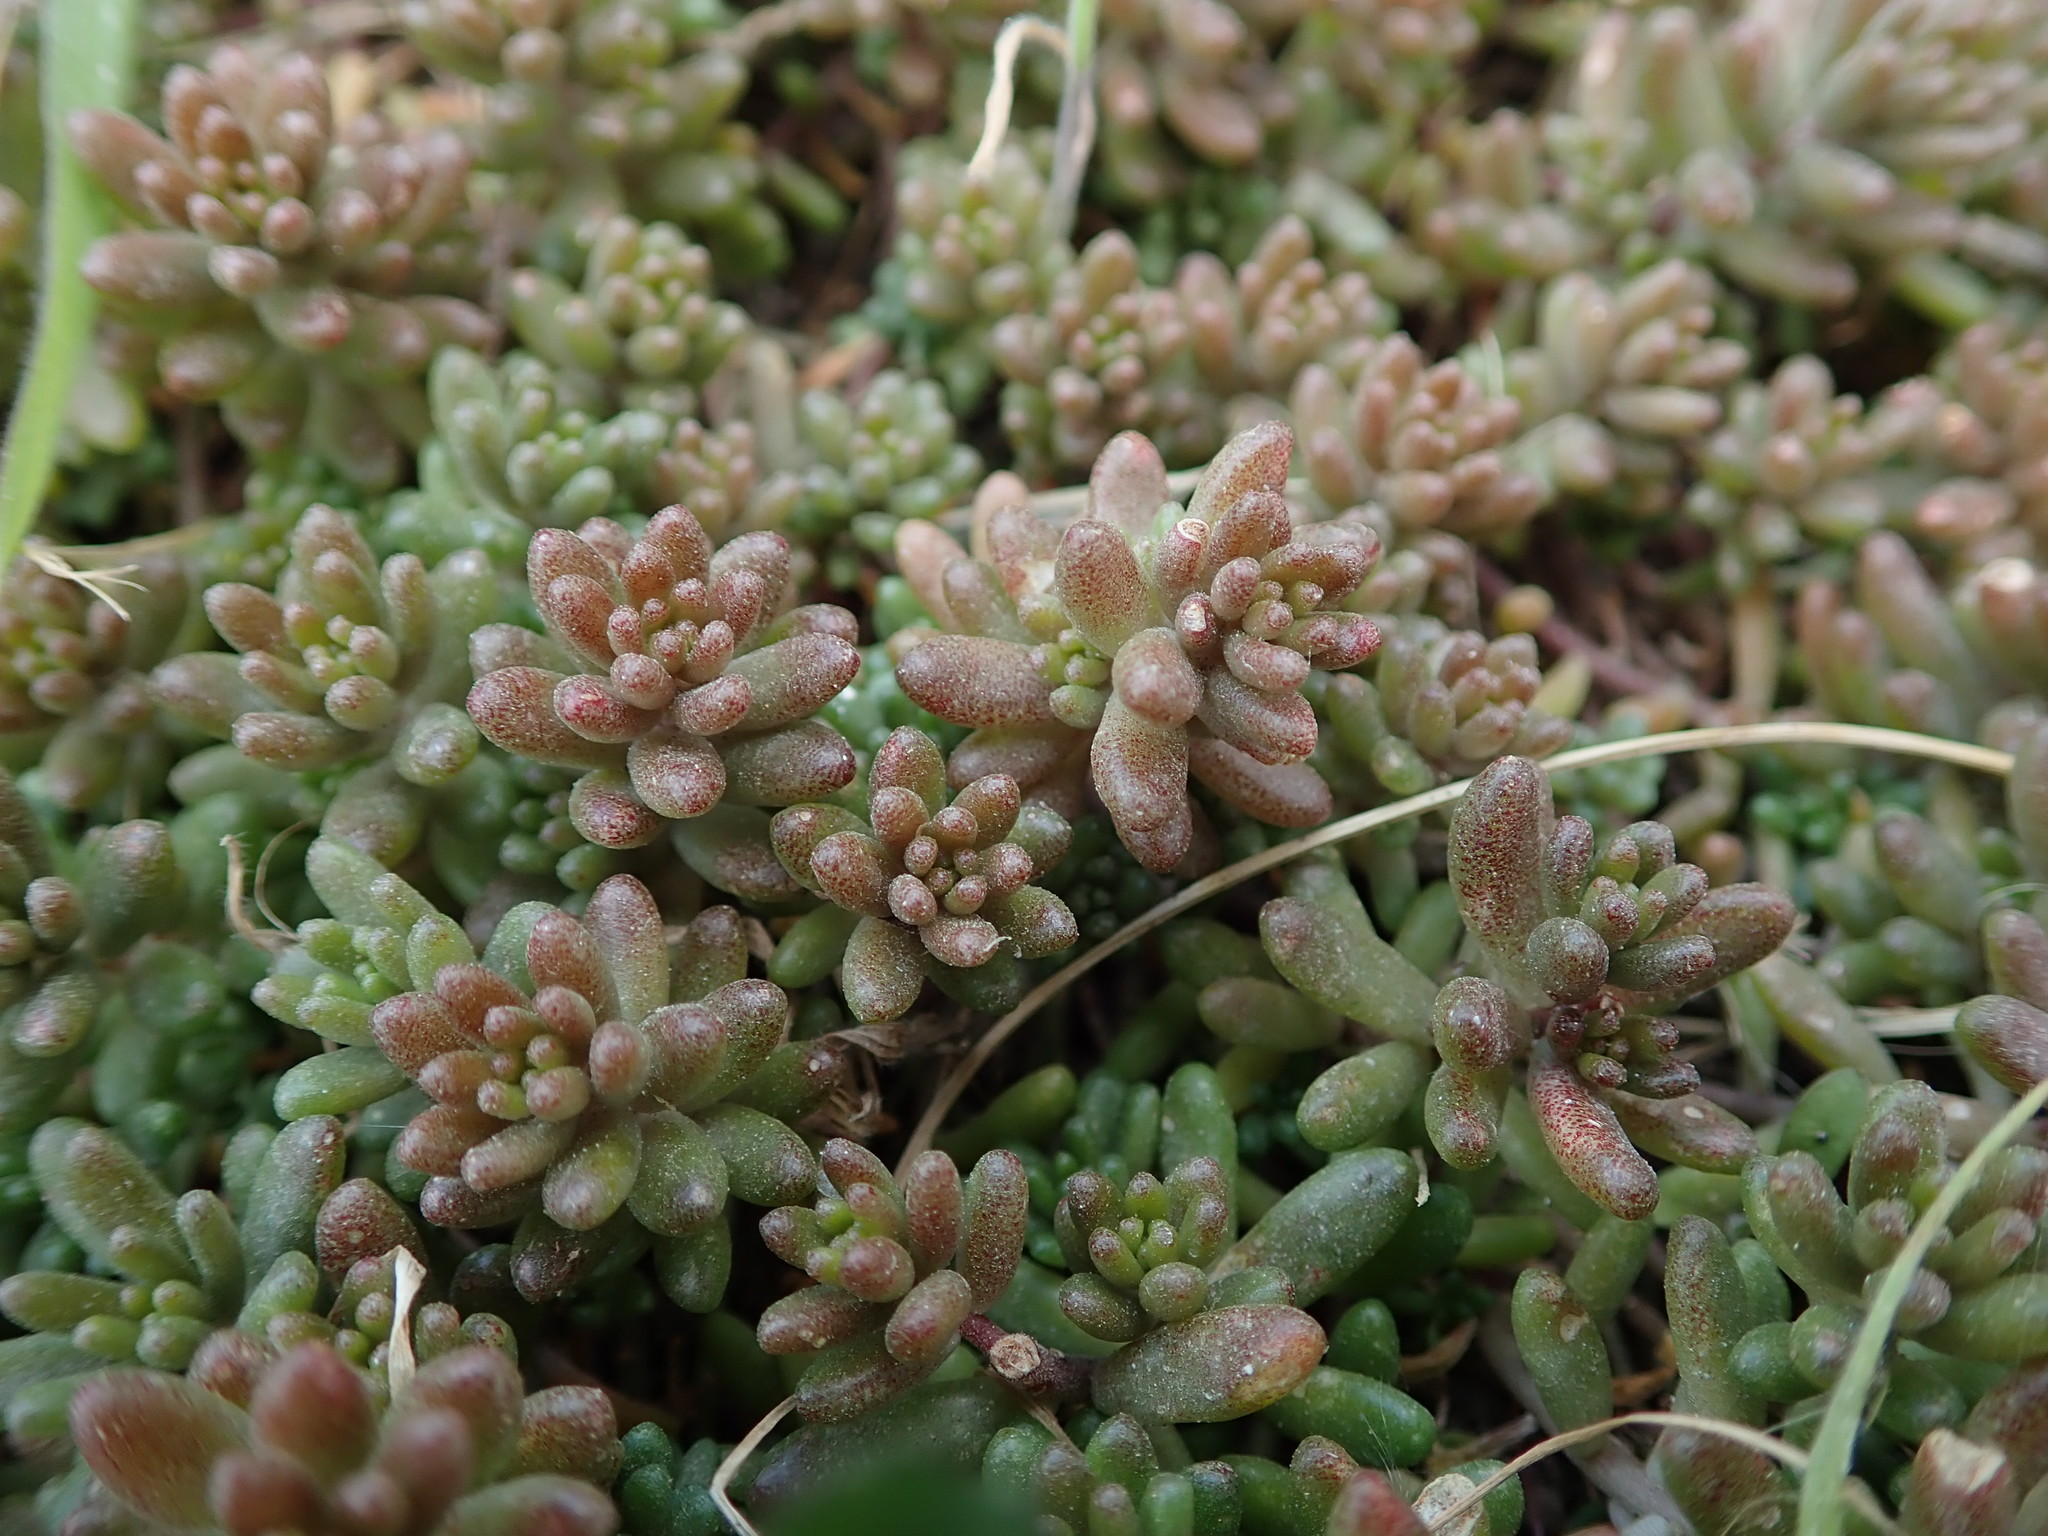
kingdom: Plantae
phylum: Tracheophyta
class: Magnoliopsida
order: Saxifragales
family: Crassulaceae
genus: Sedum
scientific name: Sedum album
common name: White stonecrop
